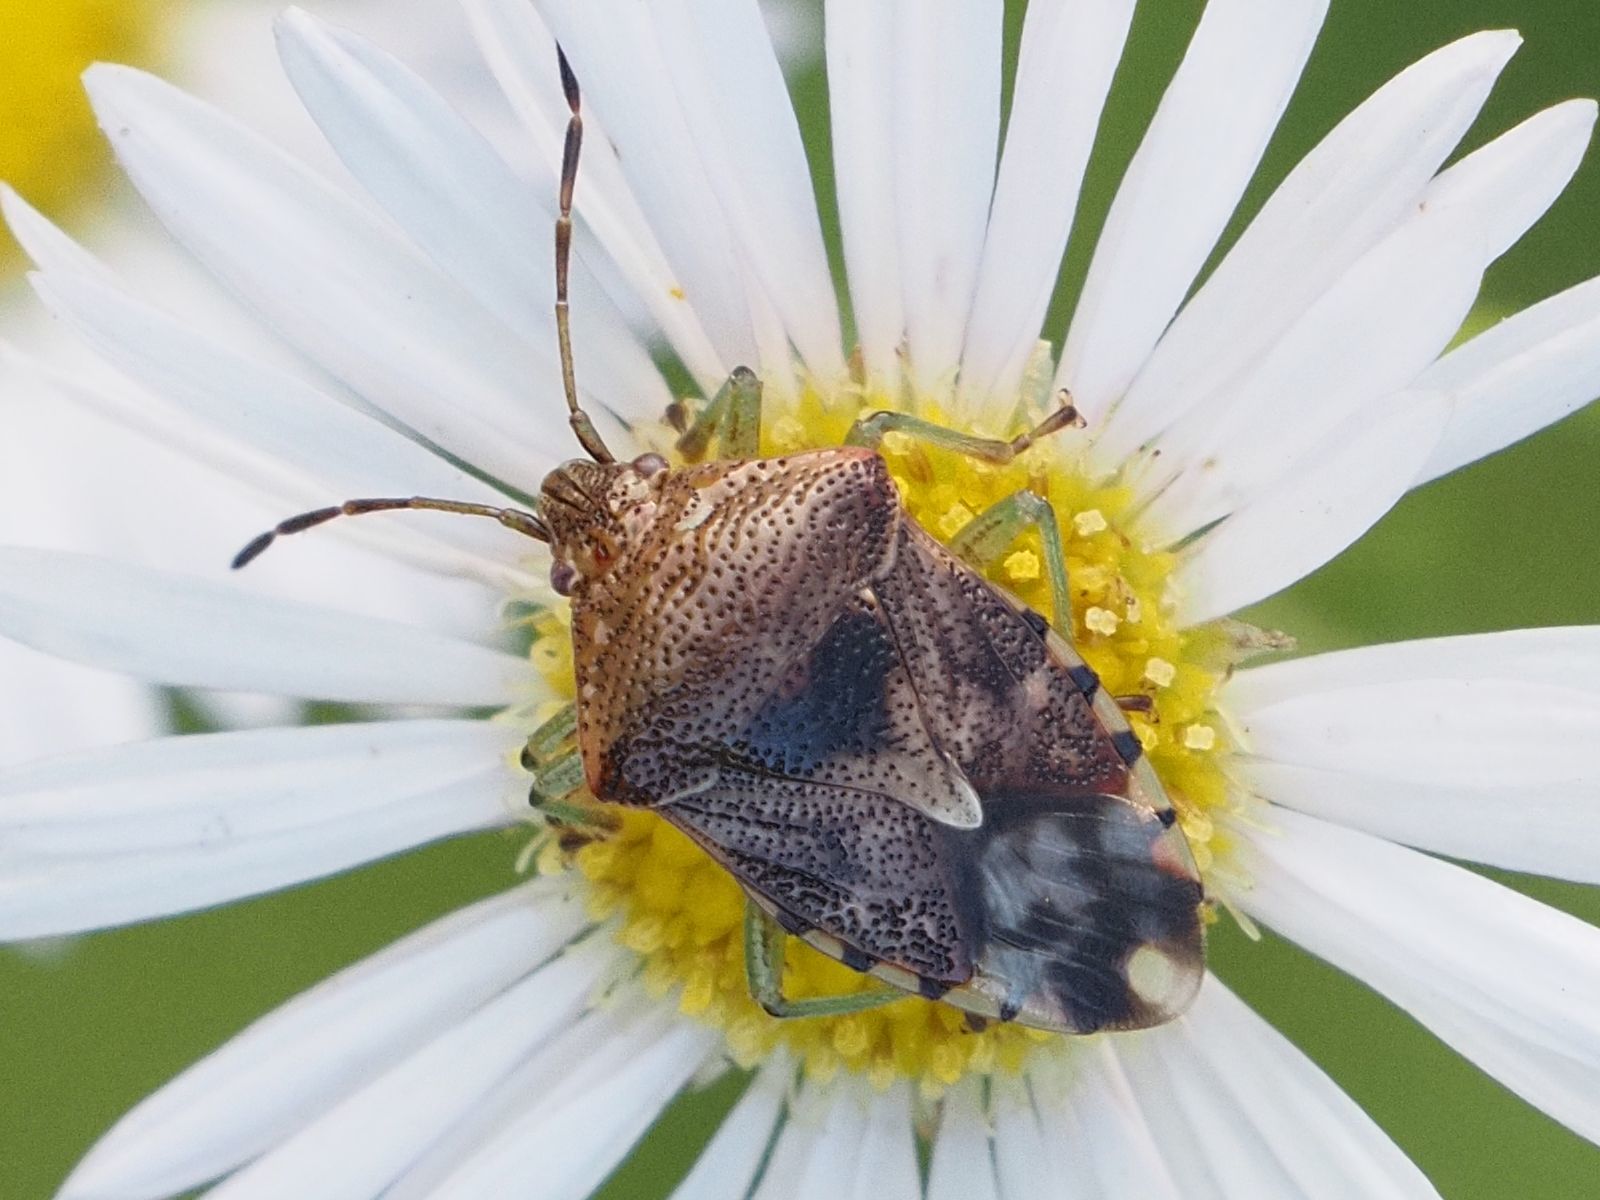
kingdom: Animalia
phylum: Arthropoda
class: Insecta
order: Hemiptera
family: Acanthosomatidae
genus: Elasmucha
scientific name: Elasmucha grisea
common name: Parent bug
